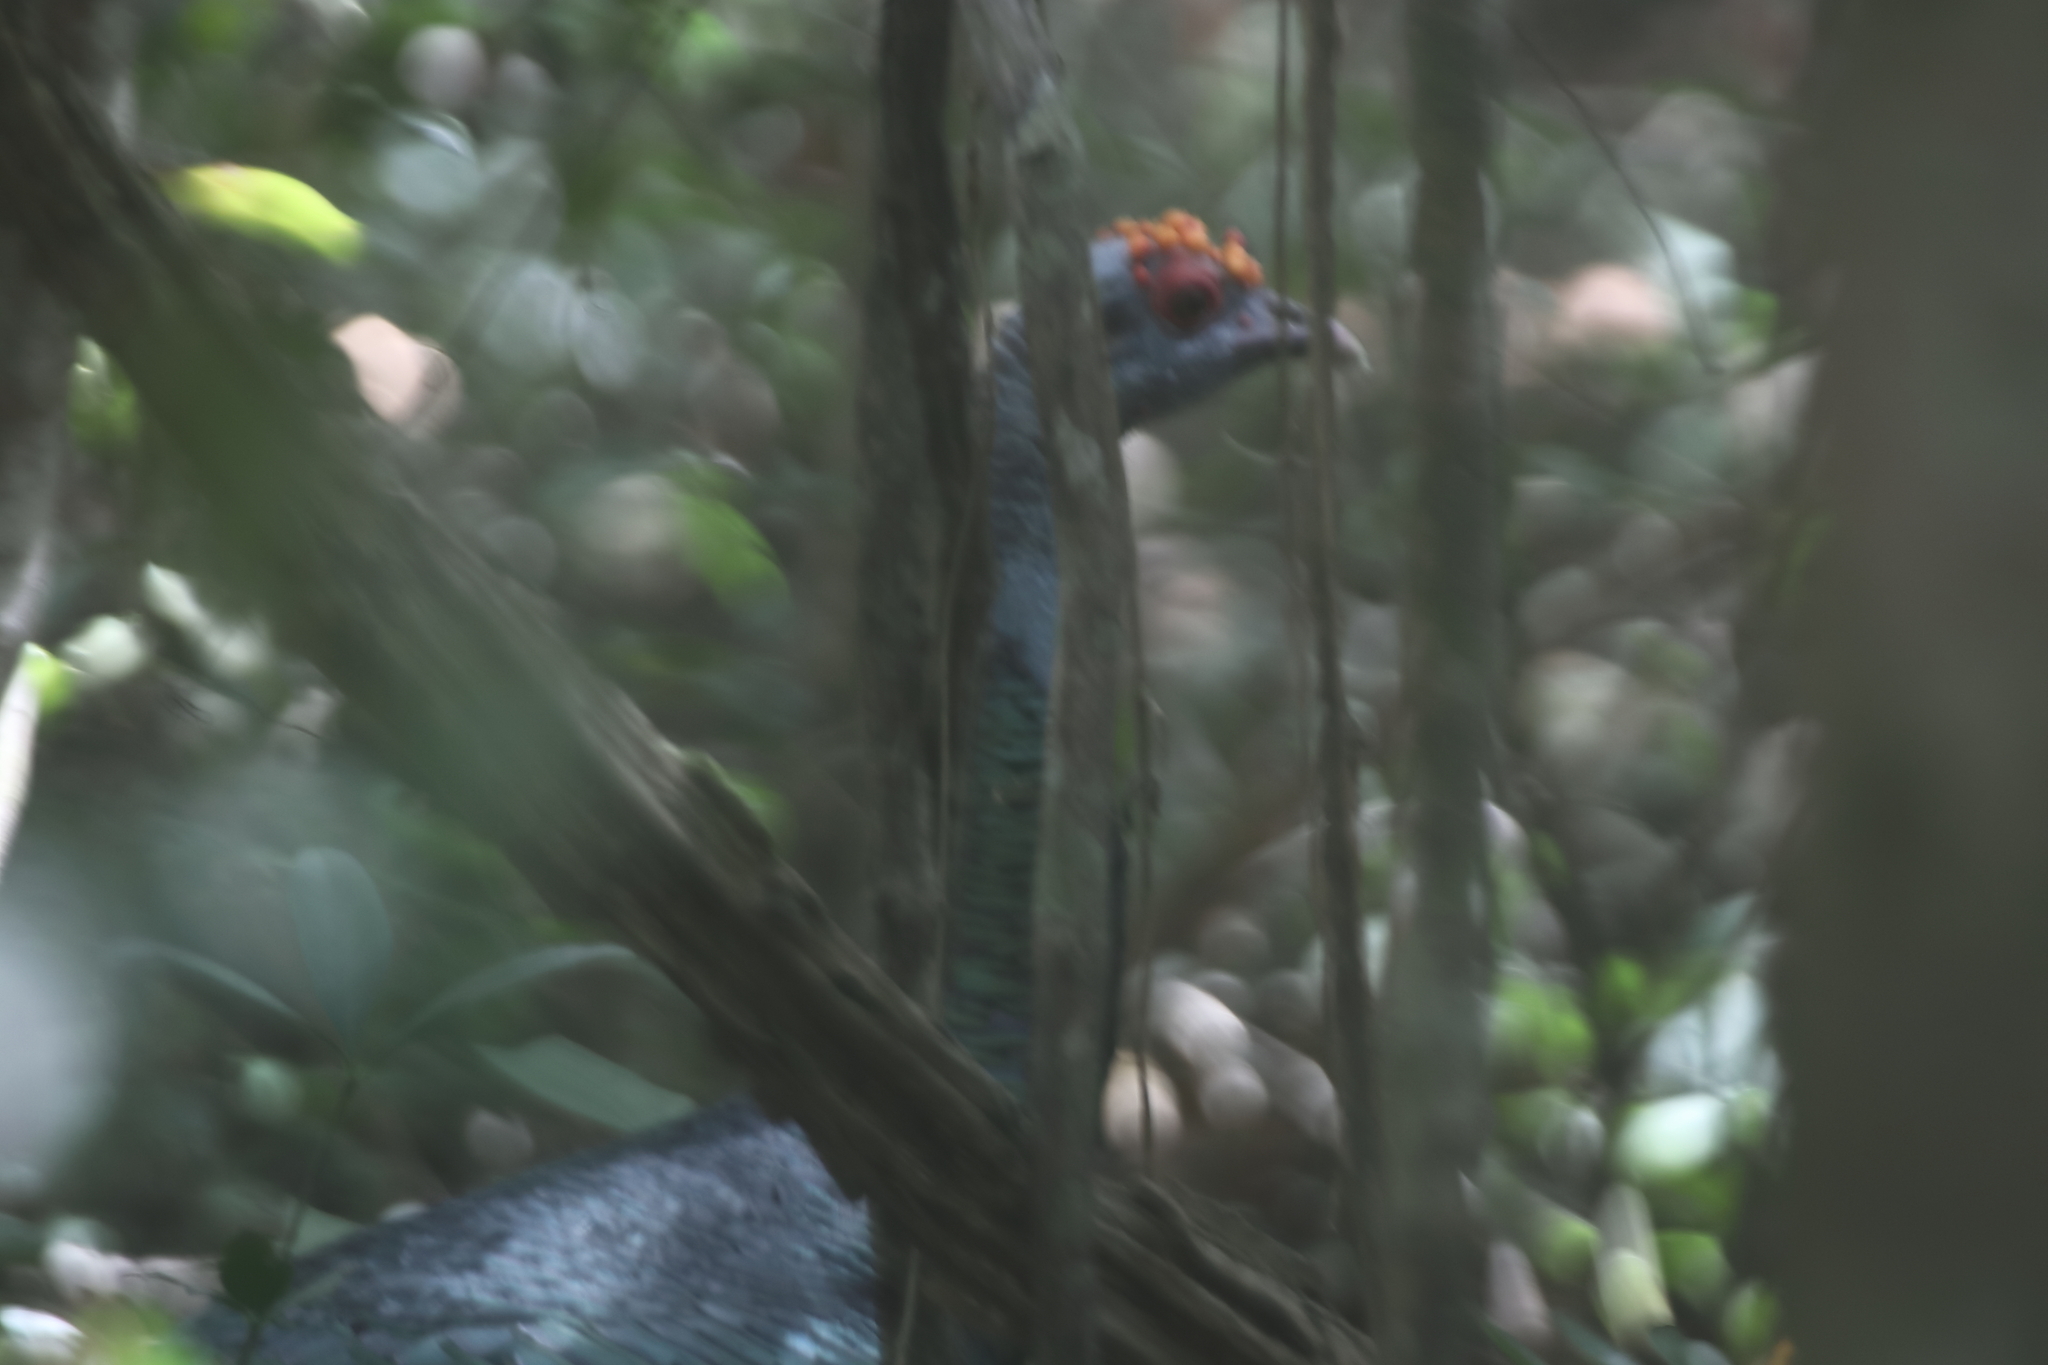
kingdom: Animalia
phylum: Chordata
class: Aves
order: Galliformes
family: Phasianidae
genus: Meleagris
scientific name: Meleagris ocellata
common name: Ocellated turkey
